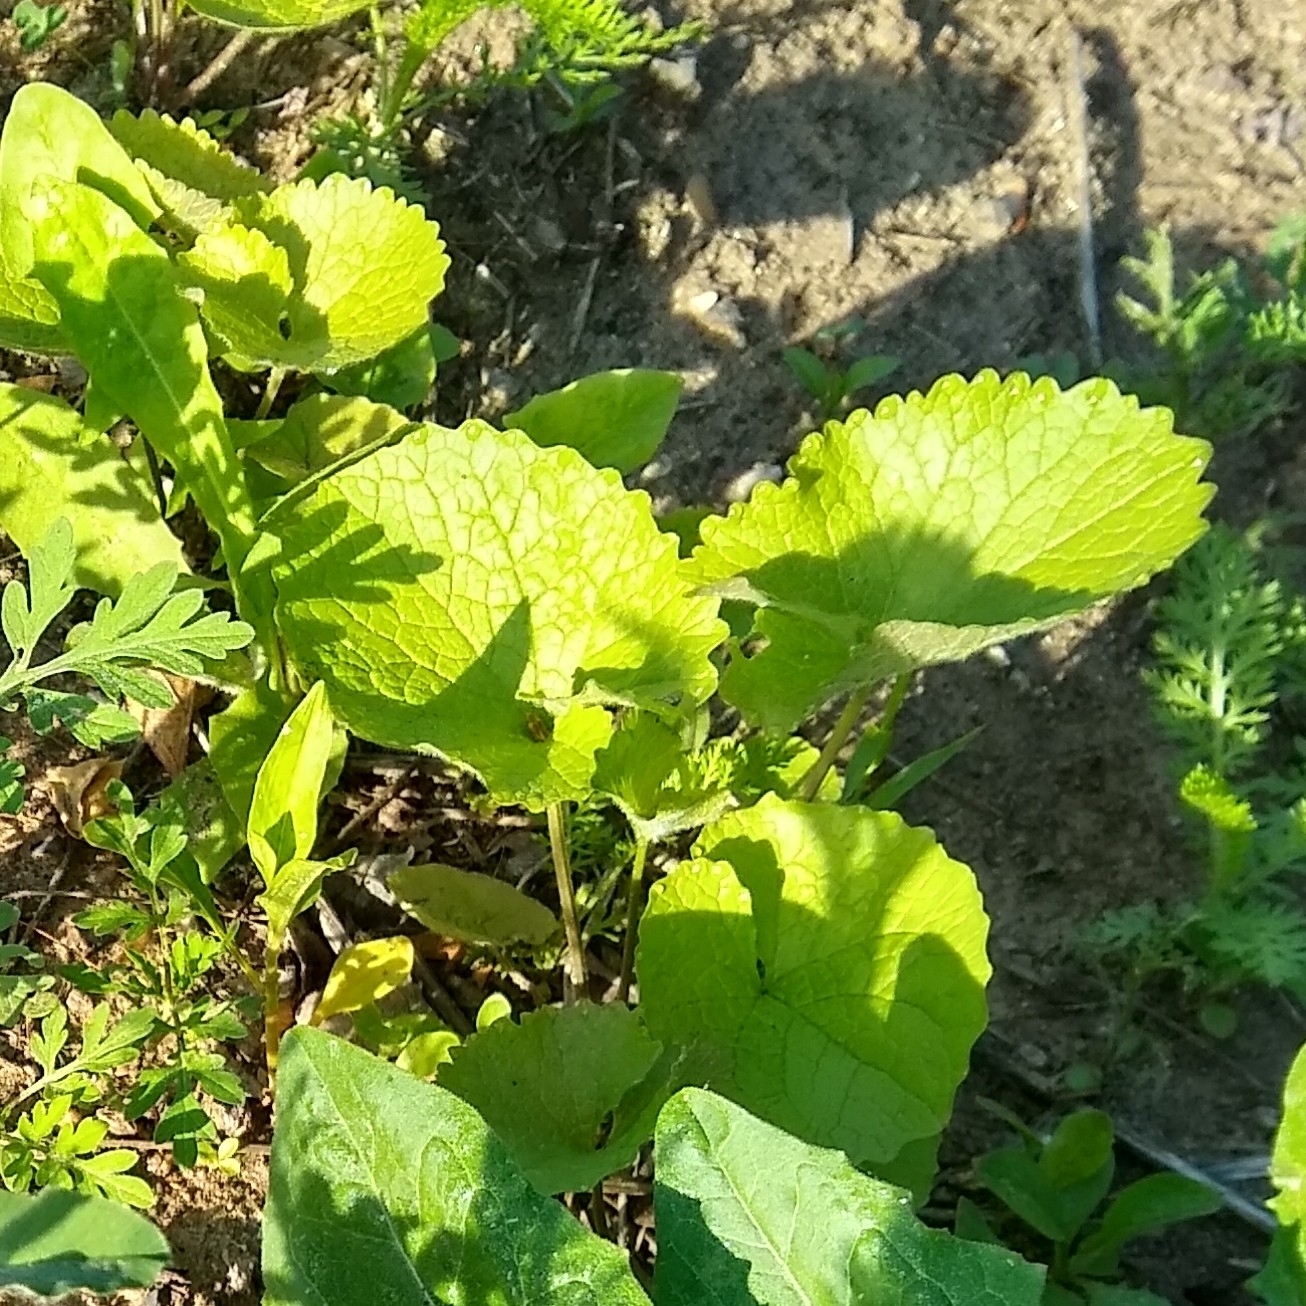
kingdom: Plantae
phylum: Tracheophyta
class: Magnoliopsida
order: Brassicales
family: Brassicaceae
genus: Alliaria
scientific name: Alliaria petiolata
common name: Garlic mustard
